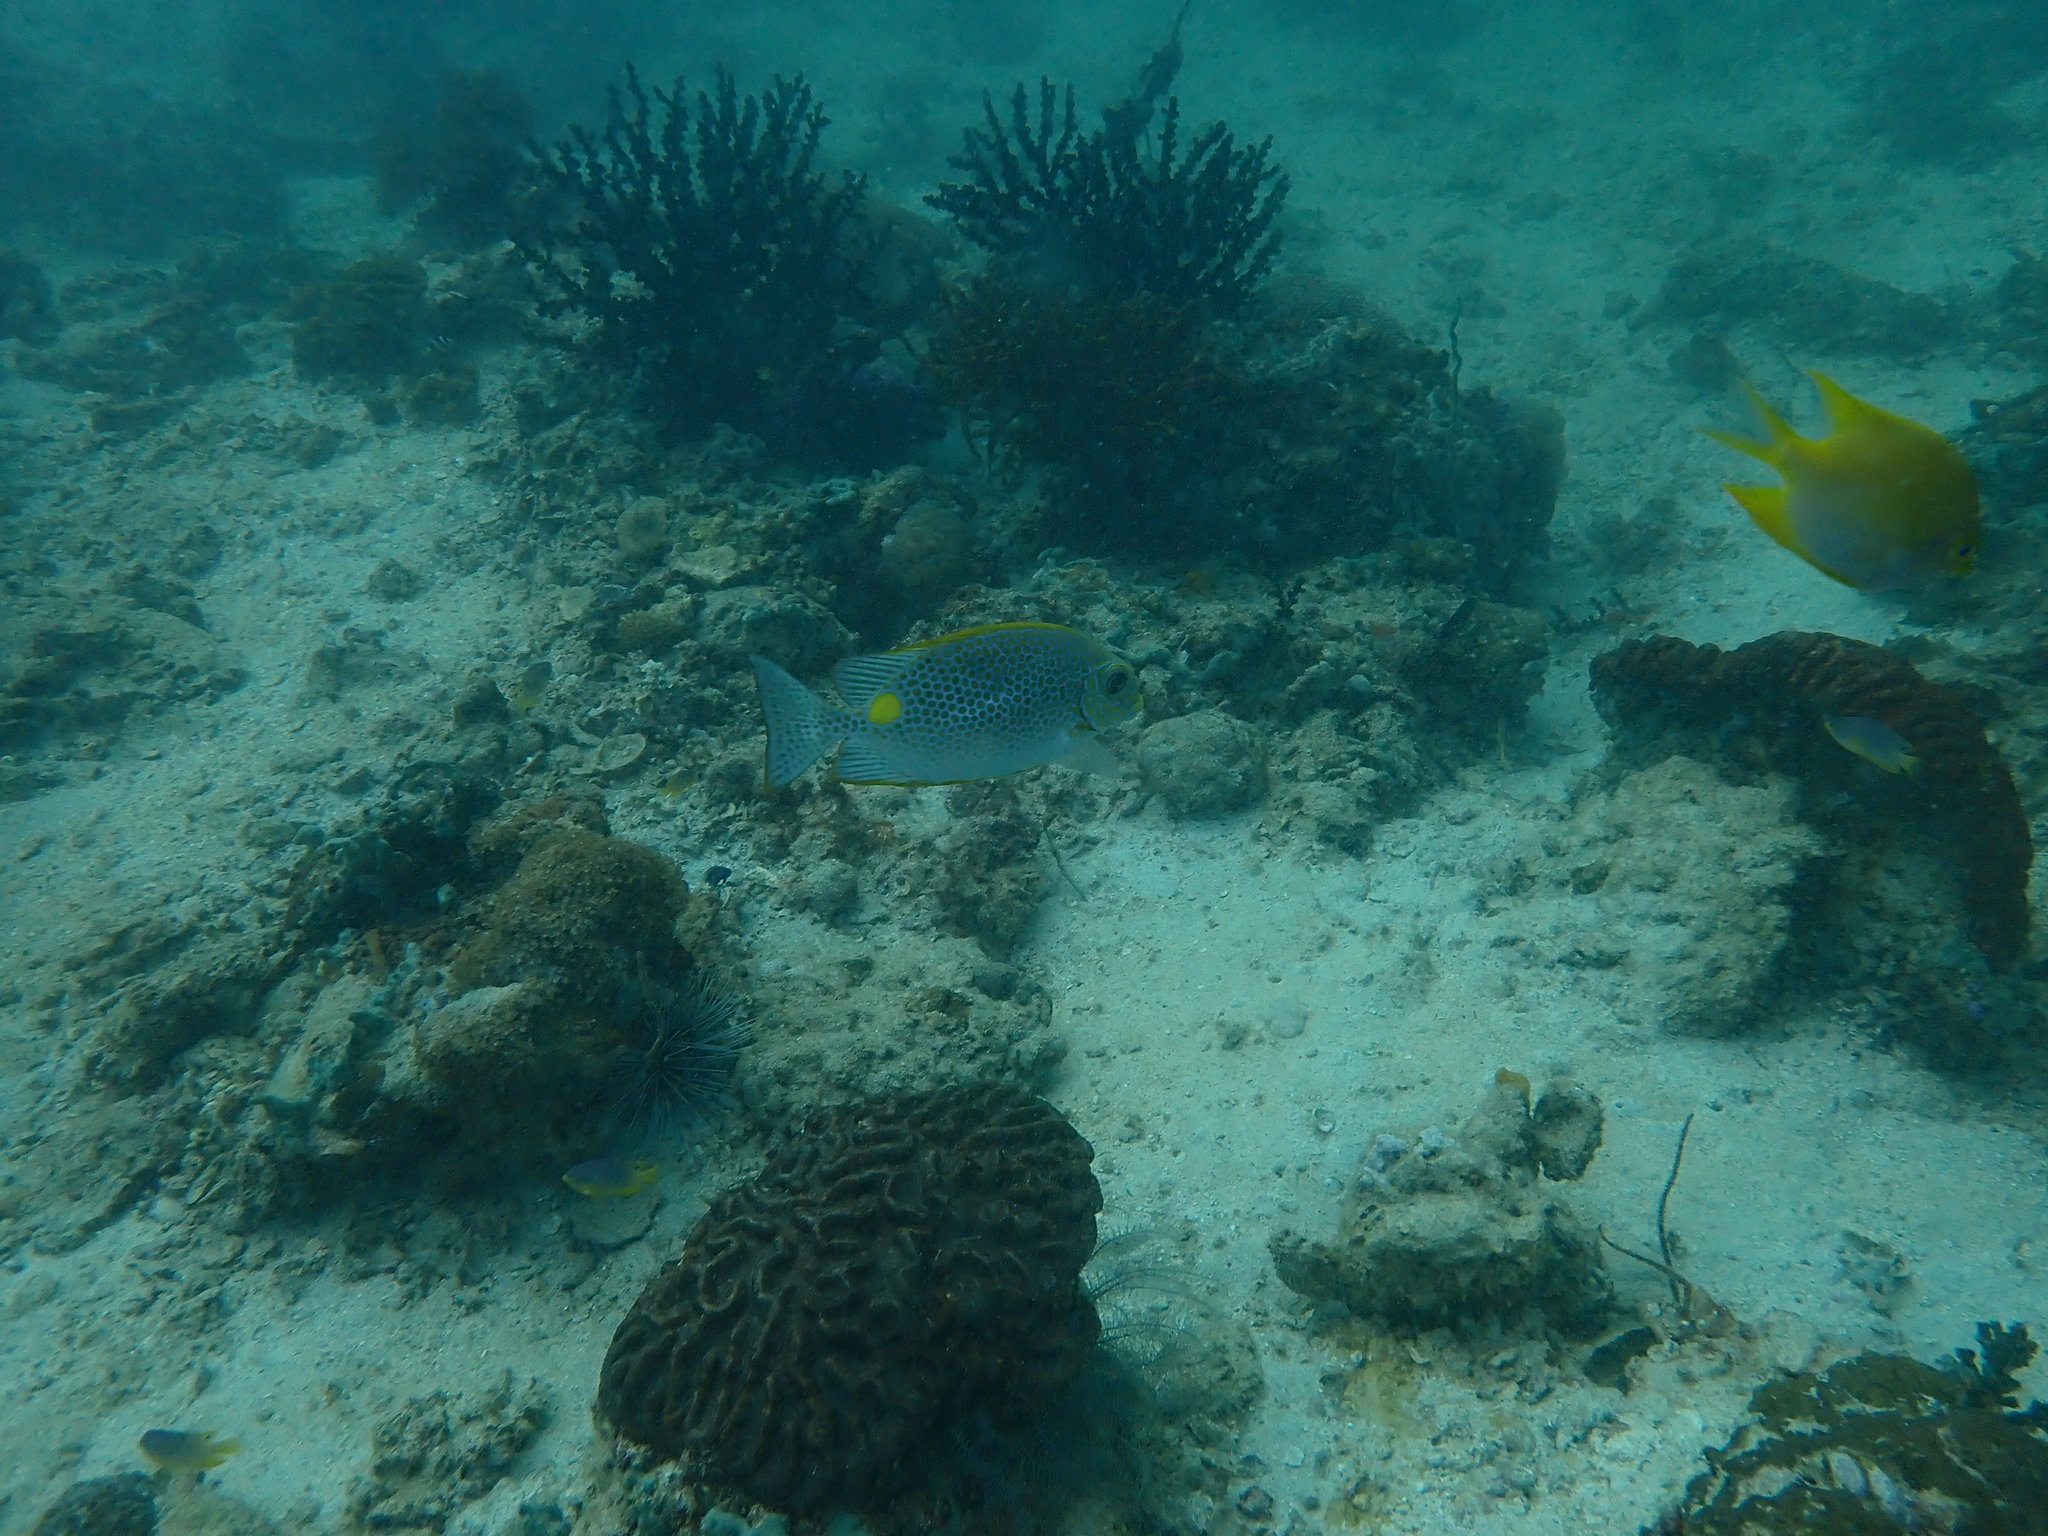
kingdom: Animalia
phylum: Chordata
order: Perciformes
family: Siganidae
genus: Siganus
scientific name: Siganus guttatus
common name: Golden rabbitfish
